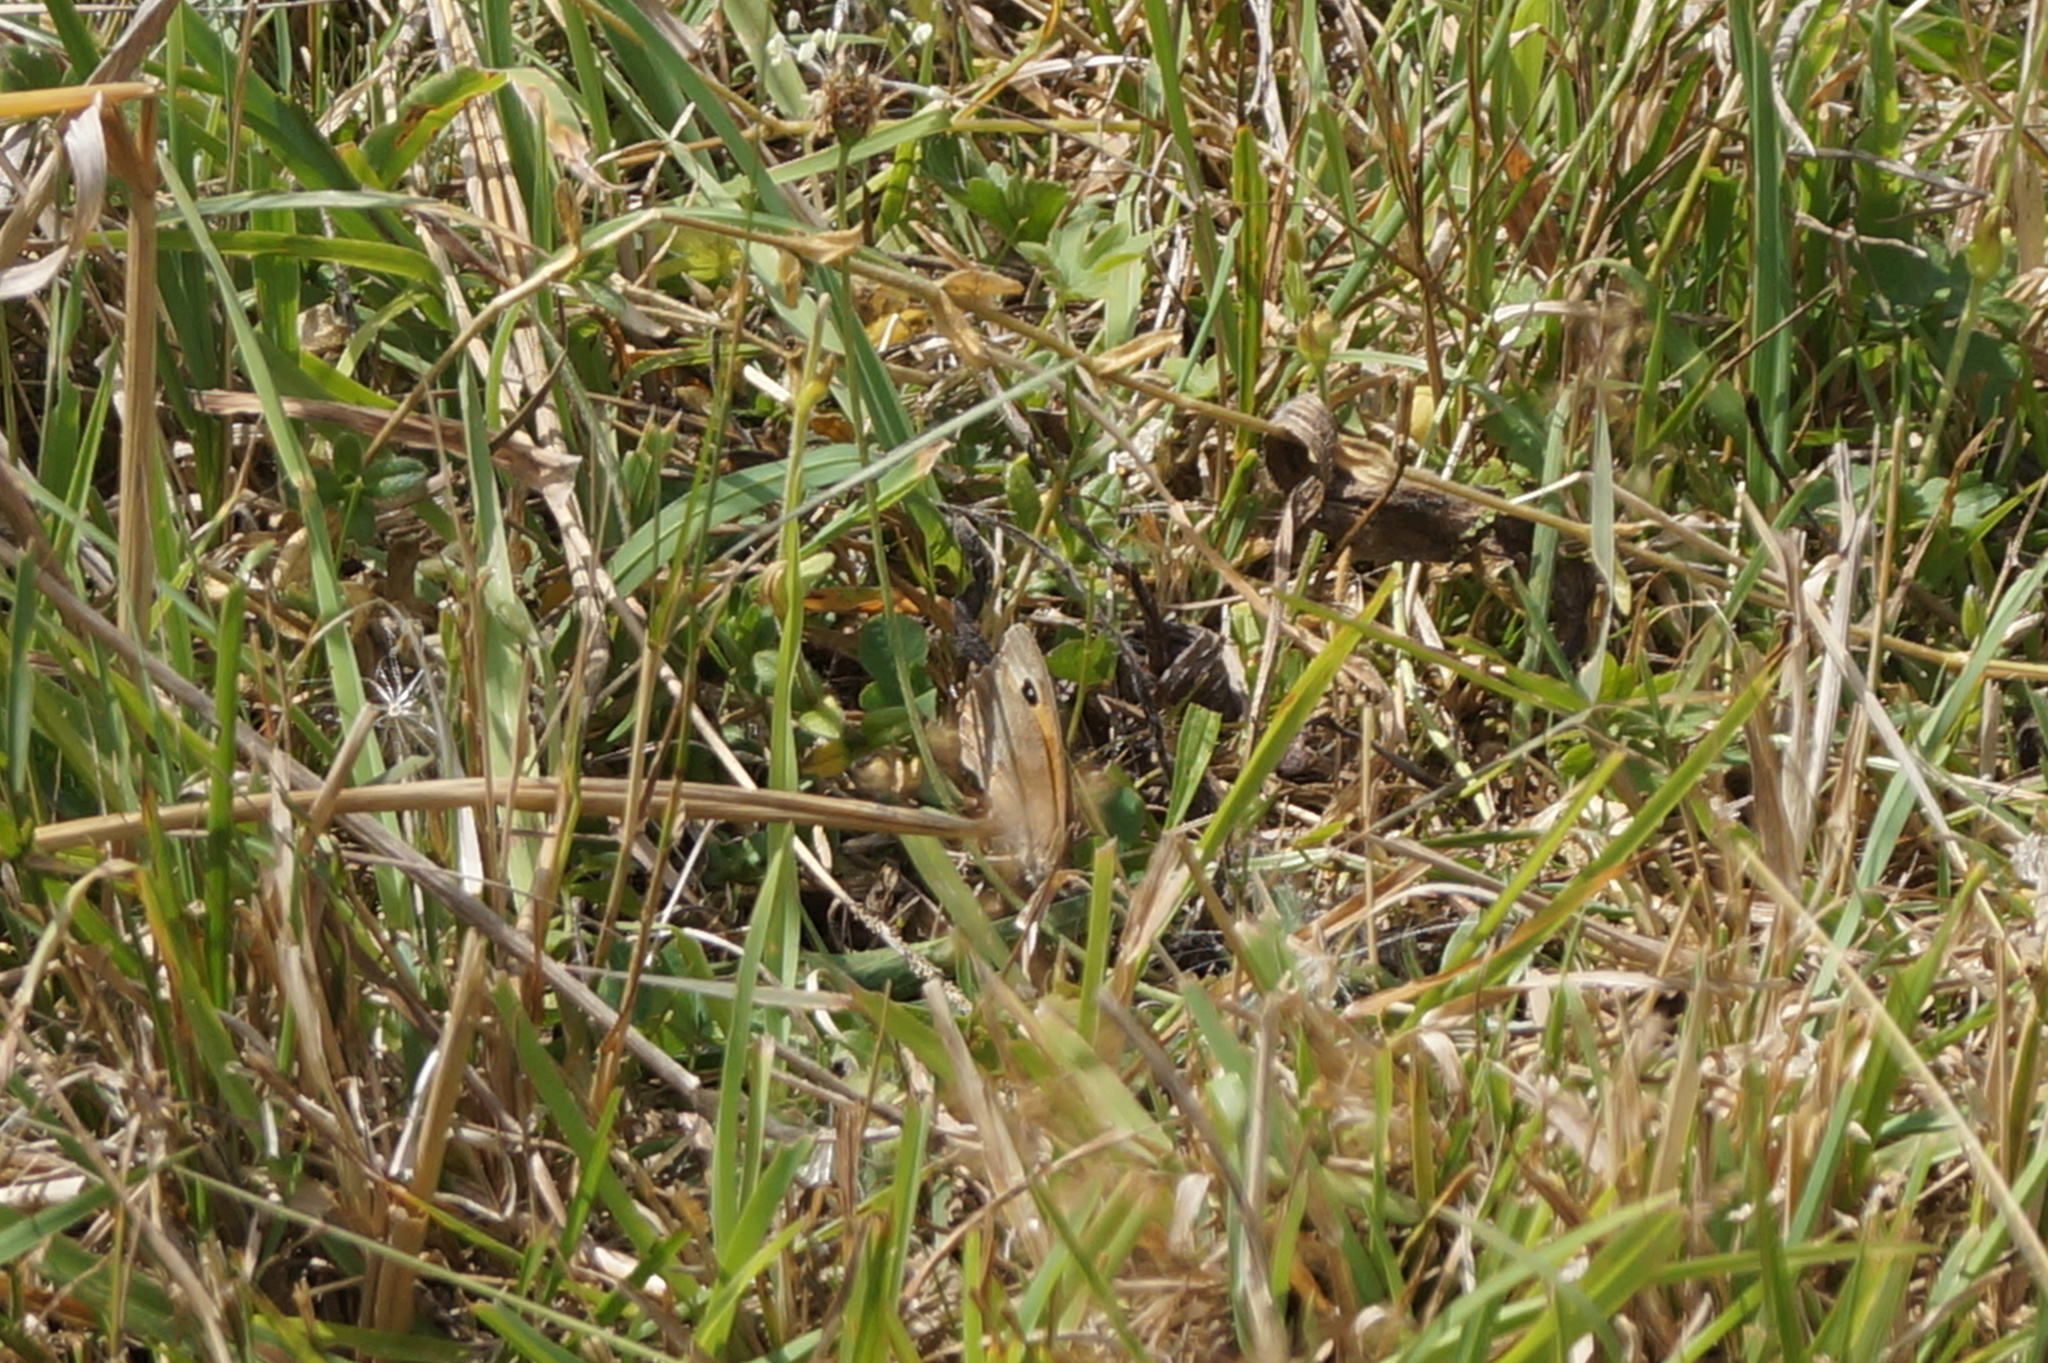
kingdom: Animalia
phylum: Arthropoda
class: Insecta
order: Lepidoptera
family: Nymphalidae
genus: Maniola
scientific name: Maniola jurtina
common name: Meadow brown
